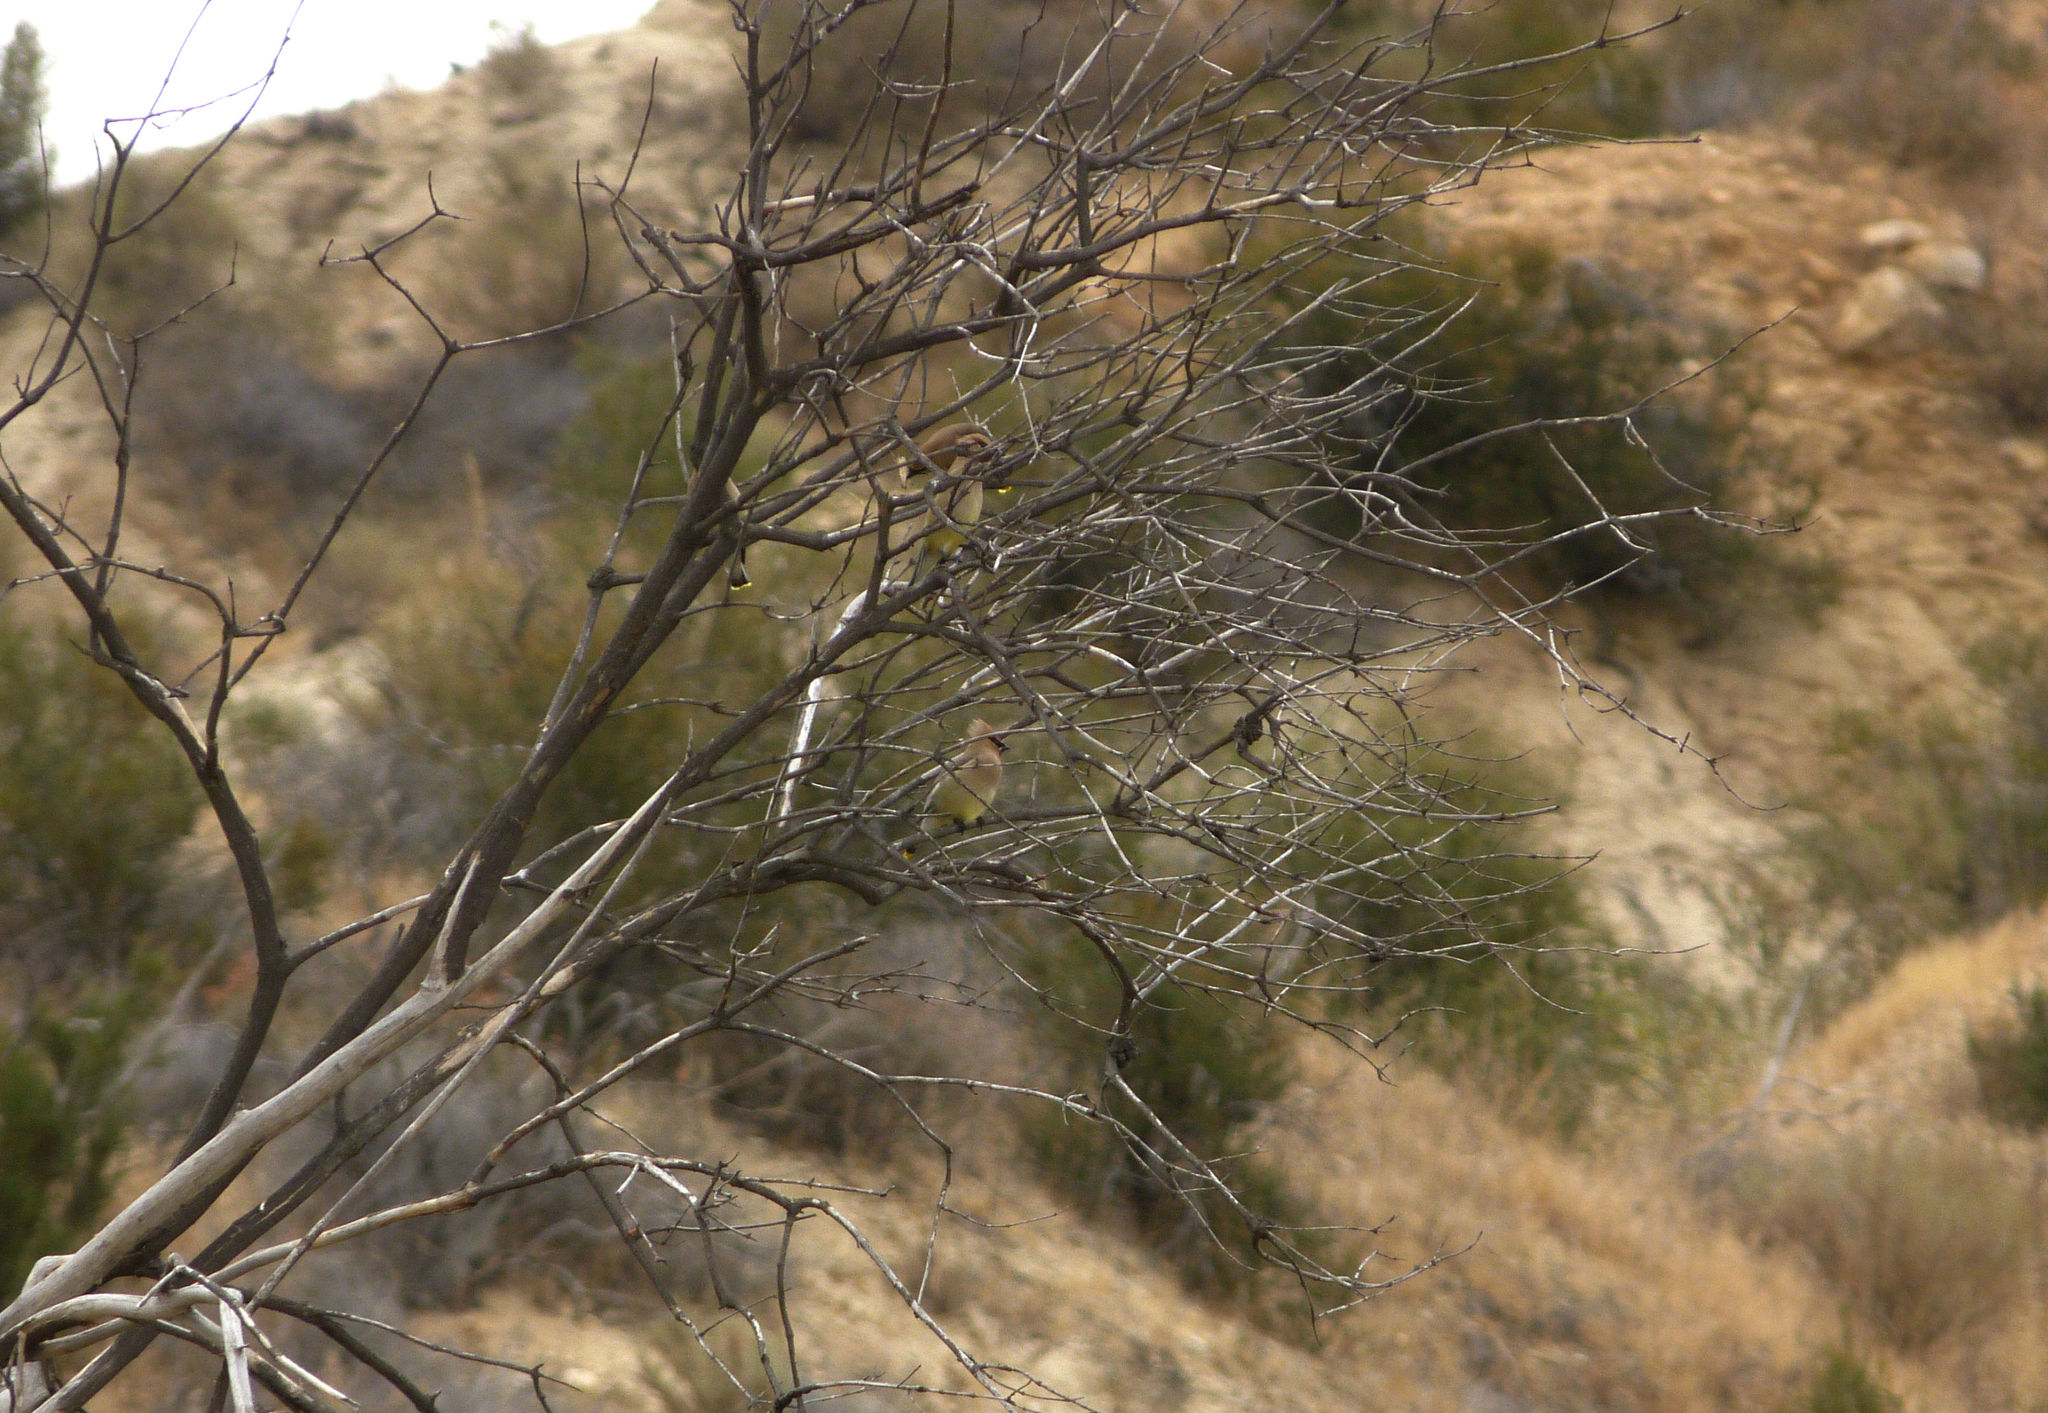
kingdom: Animalia
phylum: Chordata
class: Aves
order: Passeriformes
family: Bombycillidae
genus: Bombycilla
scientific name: Bombycilla cedrorum
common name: Cedar waxwing
